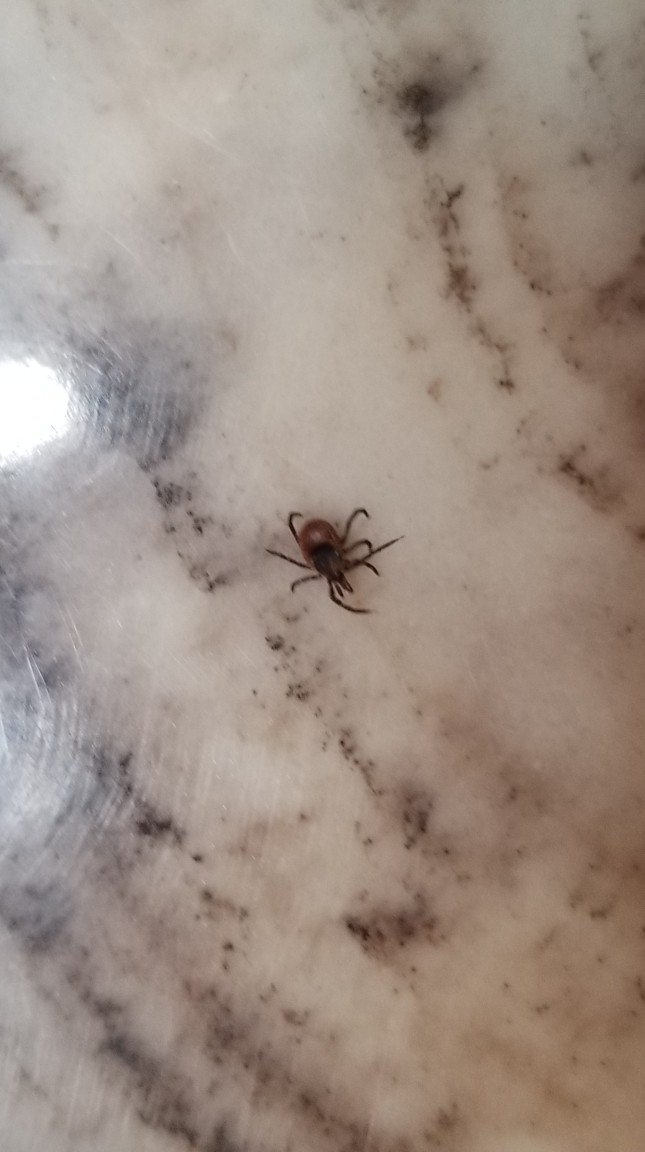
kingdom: Animalia
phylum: Arthropoda
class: Arachnida
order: Ixodida
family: Ixodidae
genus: Ixodes
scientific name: Ixodes scapularis
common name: Black legged tick
